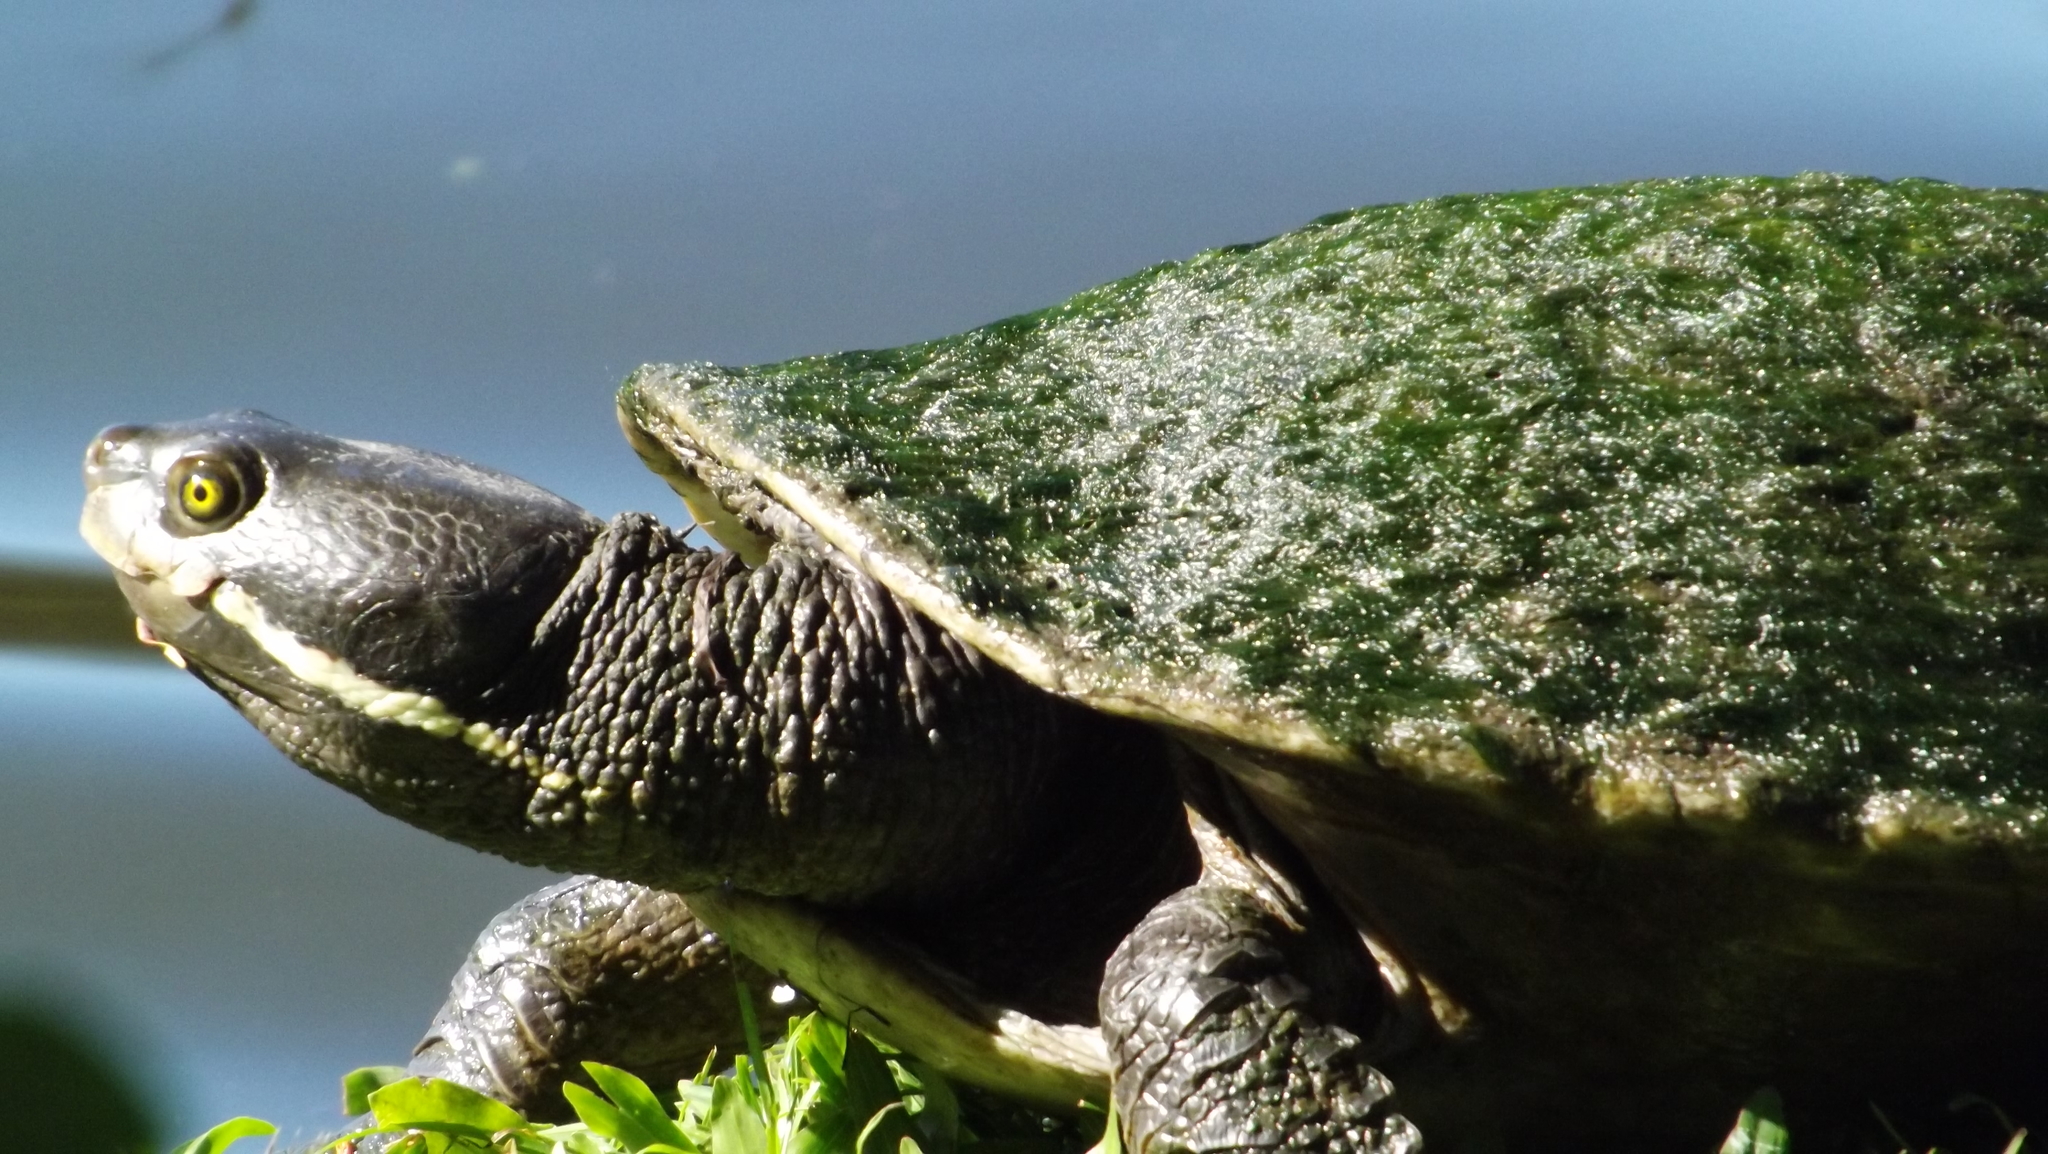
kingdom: Animalia
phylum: Chordata
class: Testudines
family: Chelidae
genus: Emydura
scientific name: Emydura macquarii
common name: Murray river turtle
